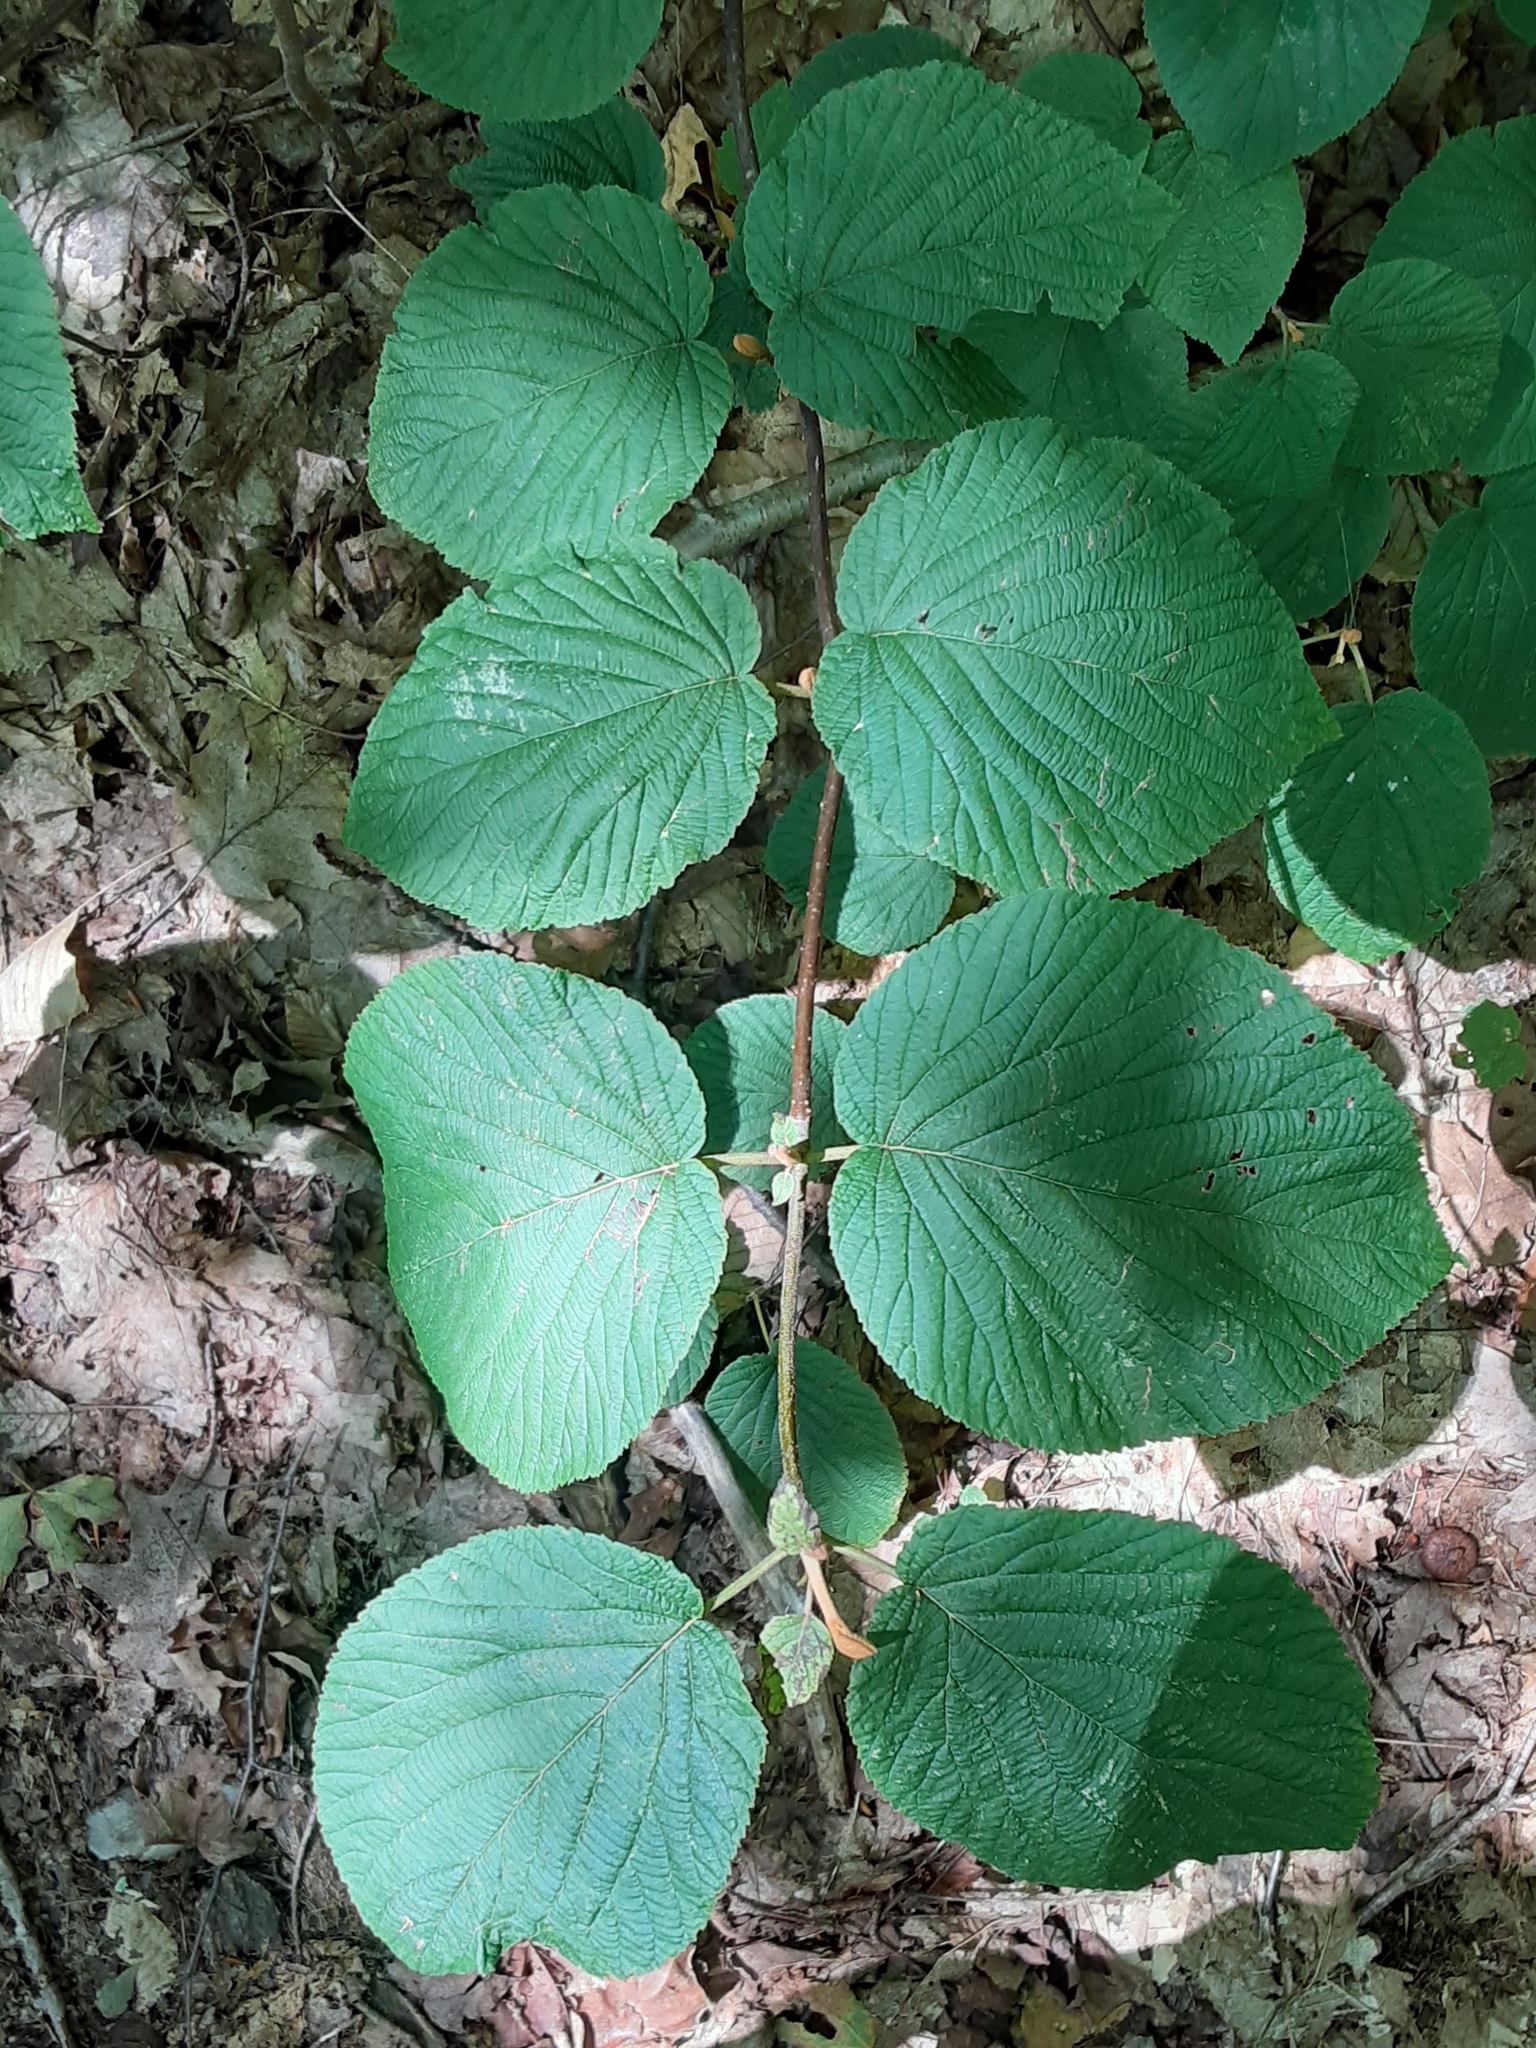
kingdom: Plantae
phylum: Tracheophyta
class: Magnoliopsida
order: Dipsacales
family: Viburnaceae
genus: Viburnum
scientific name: Viburnum lantanoides
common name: Hobblebush
